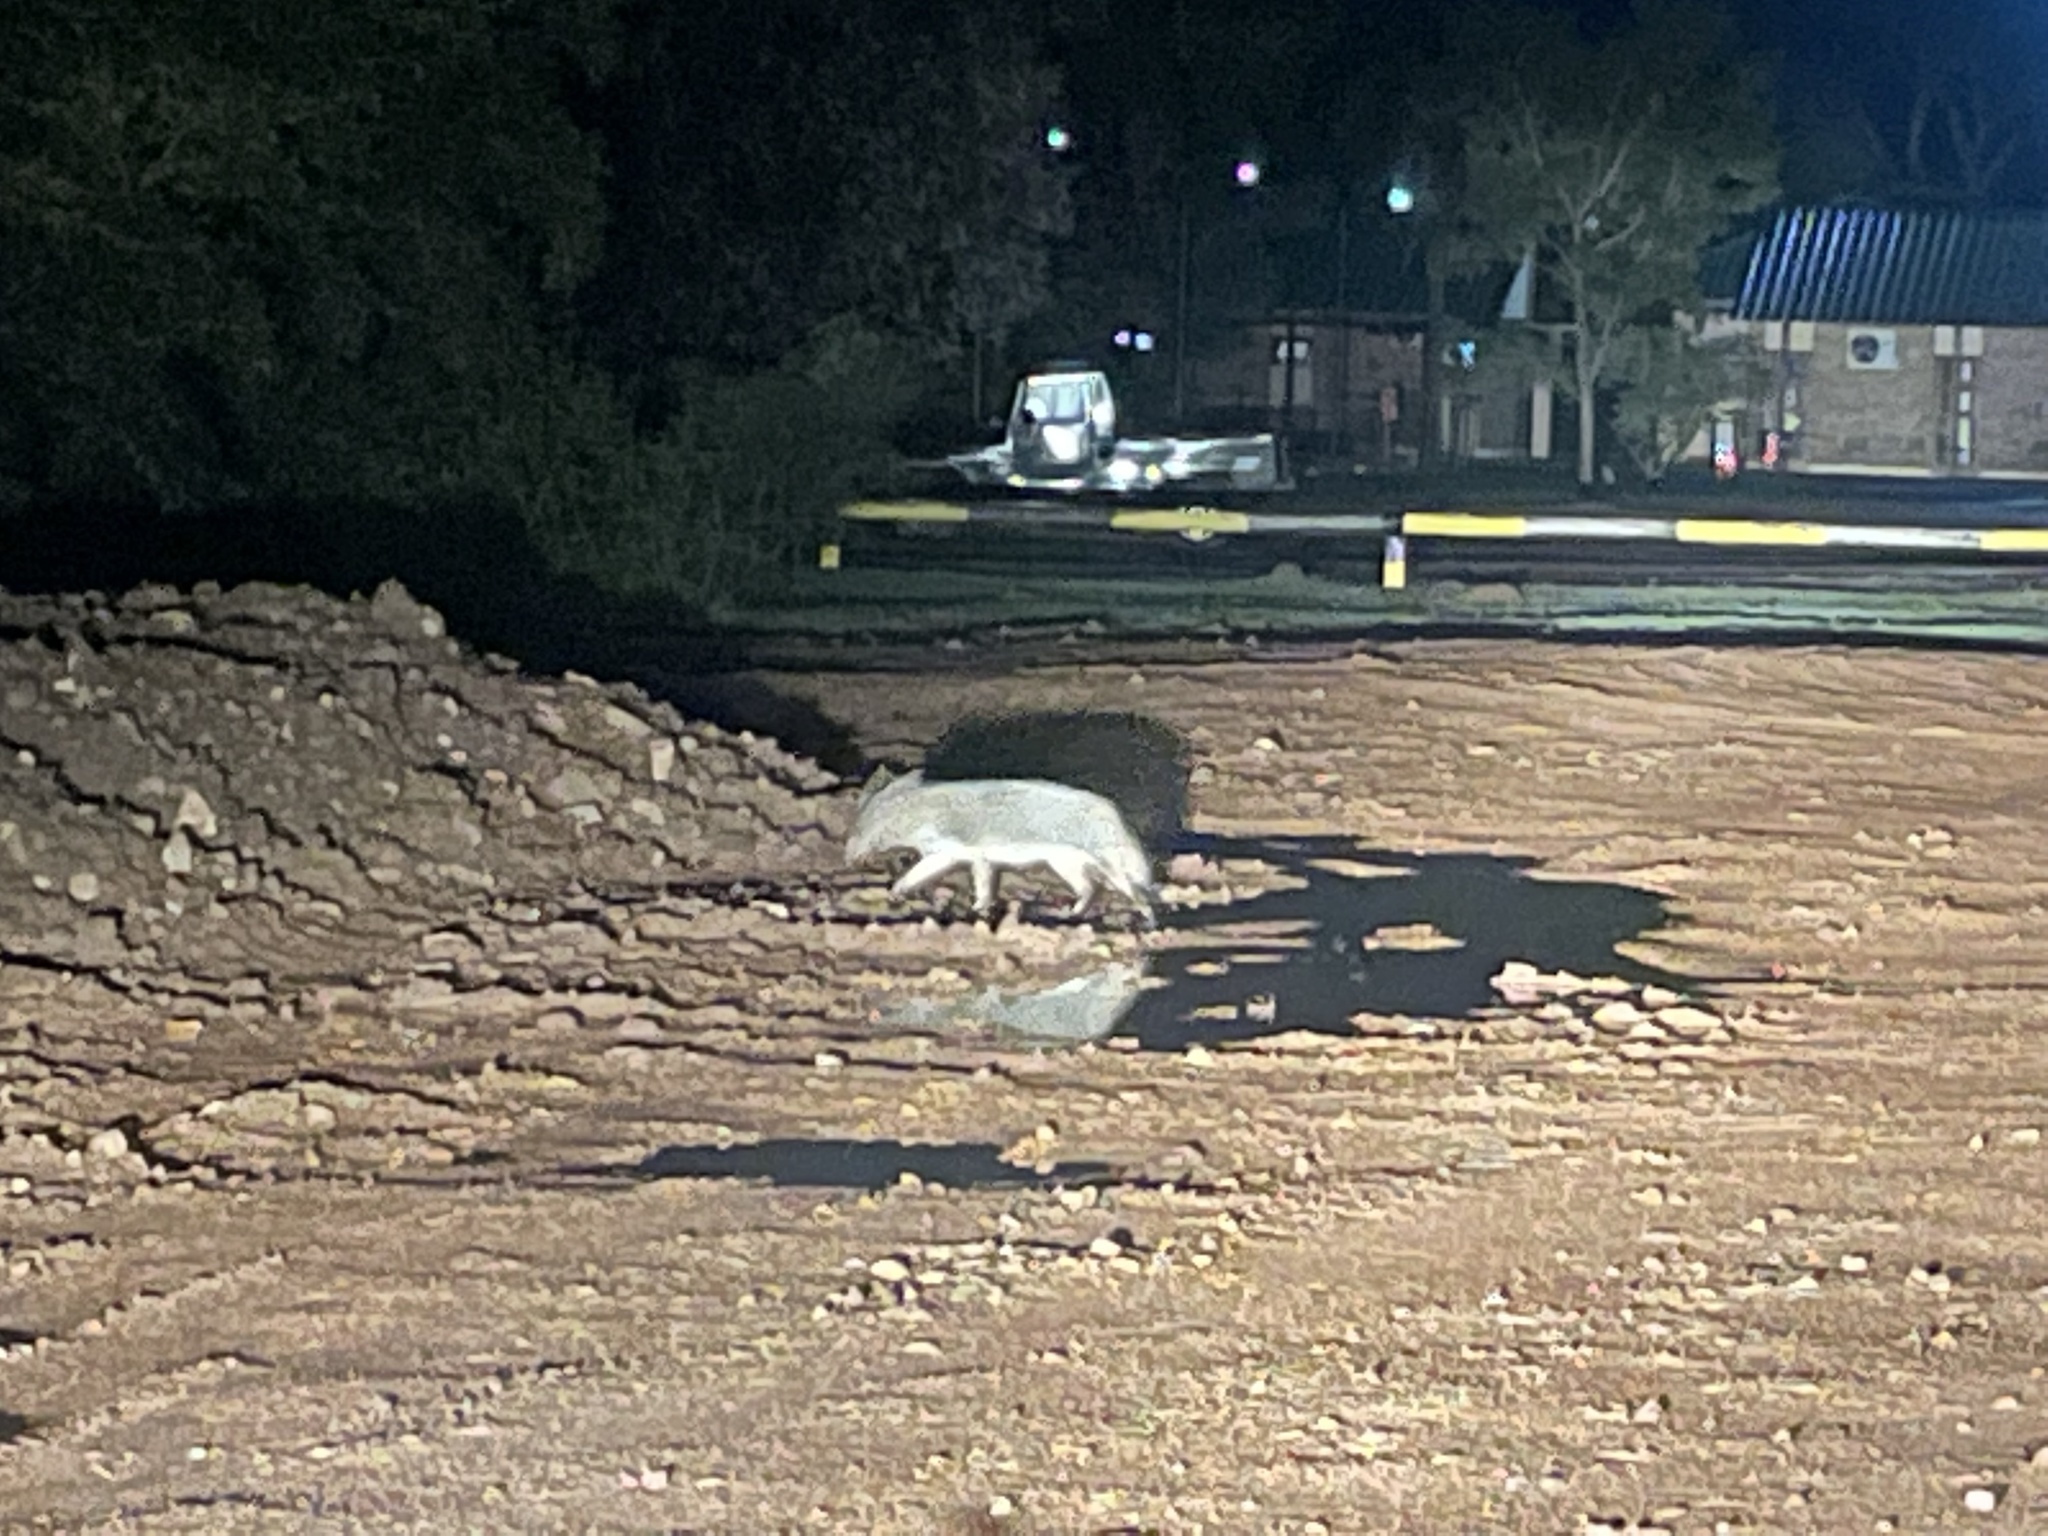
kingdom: Animalia
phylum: Chordata
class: Mammalia
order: Carnivora
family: Canidae
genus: Cerdocyon
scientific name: Cerdocyon thous
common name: Crab-eating fox
